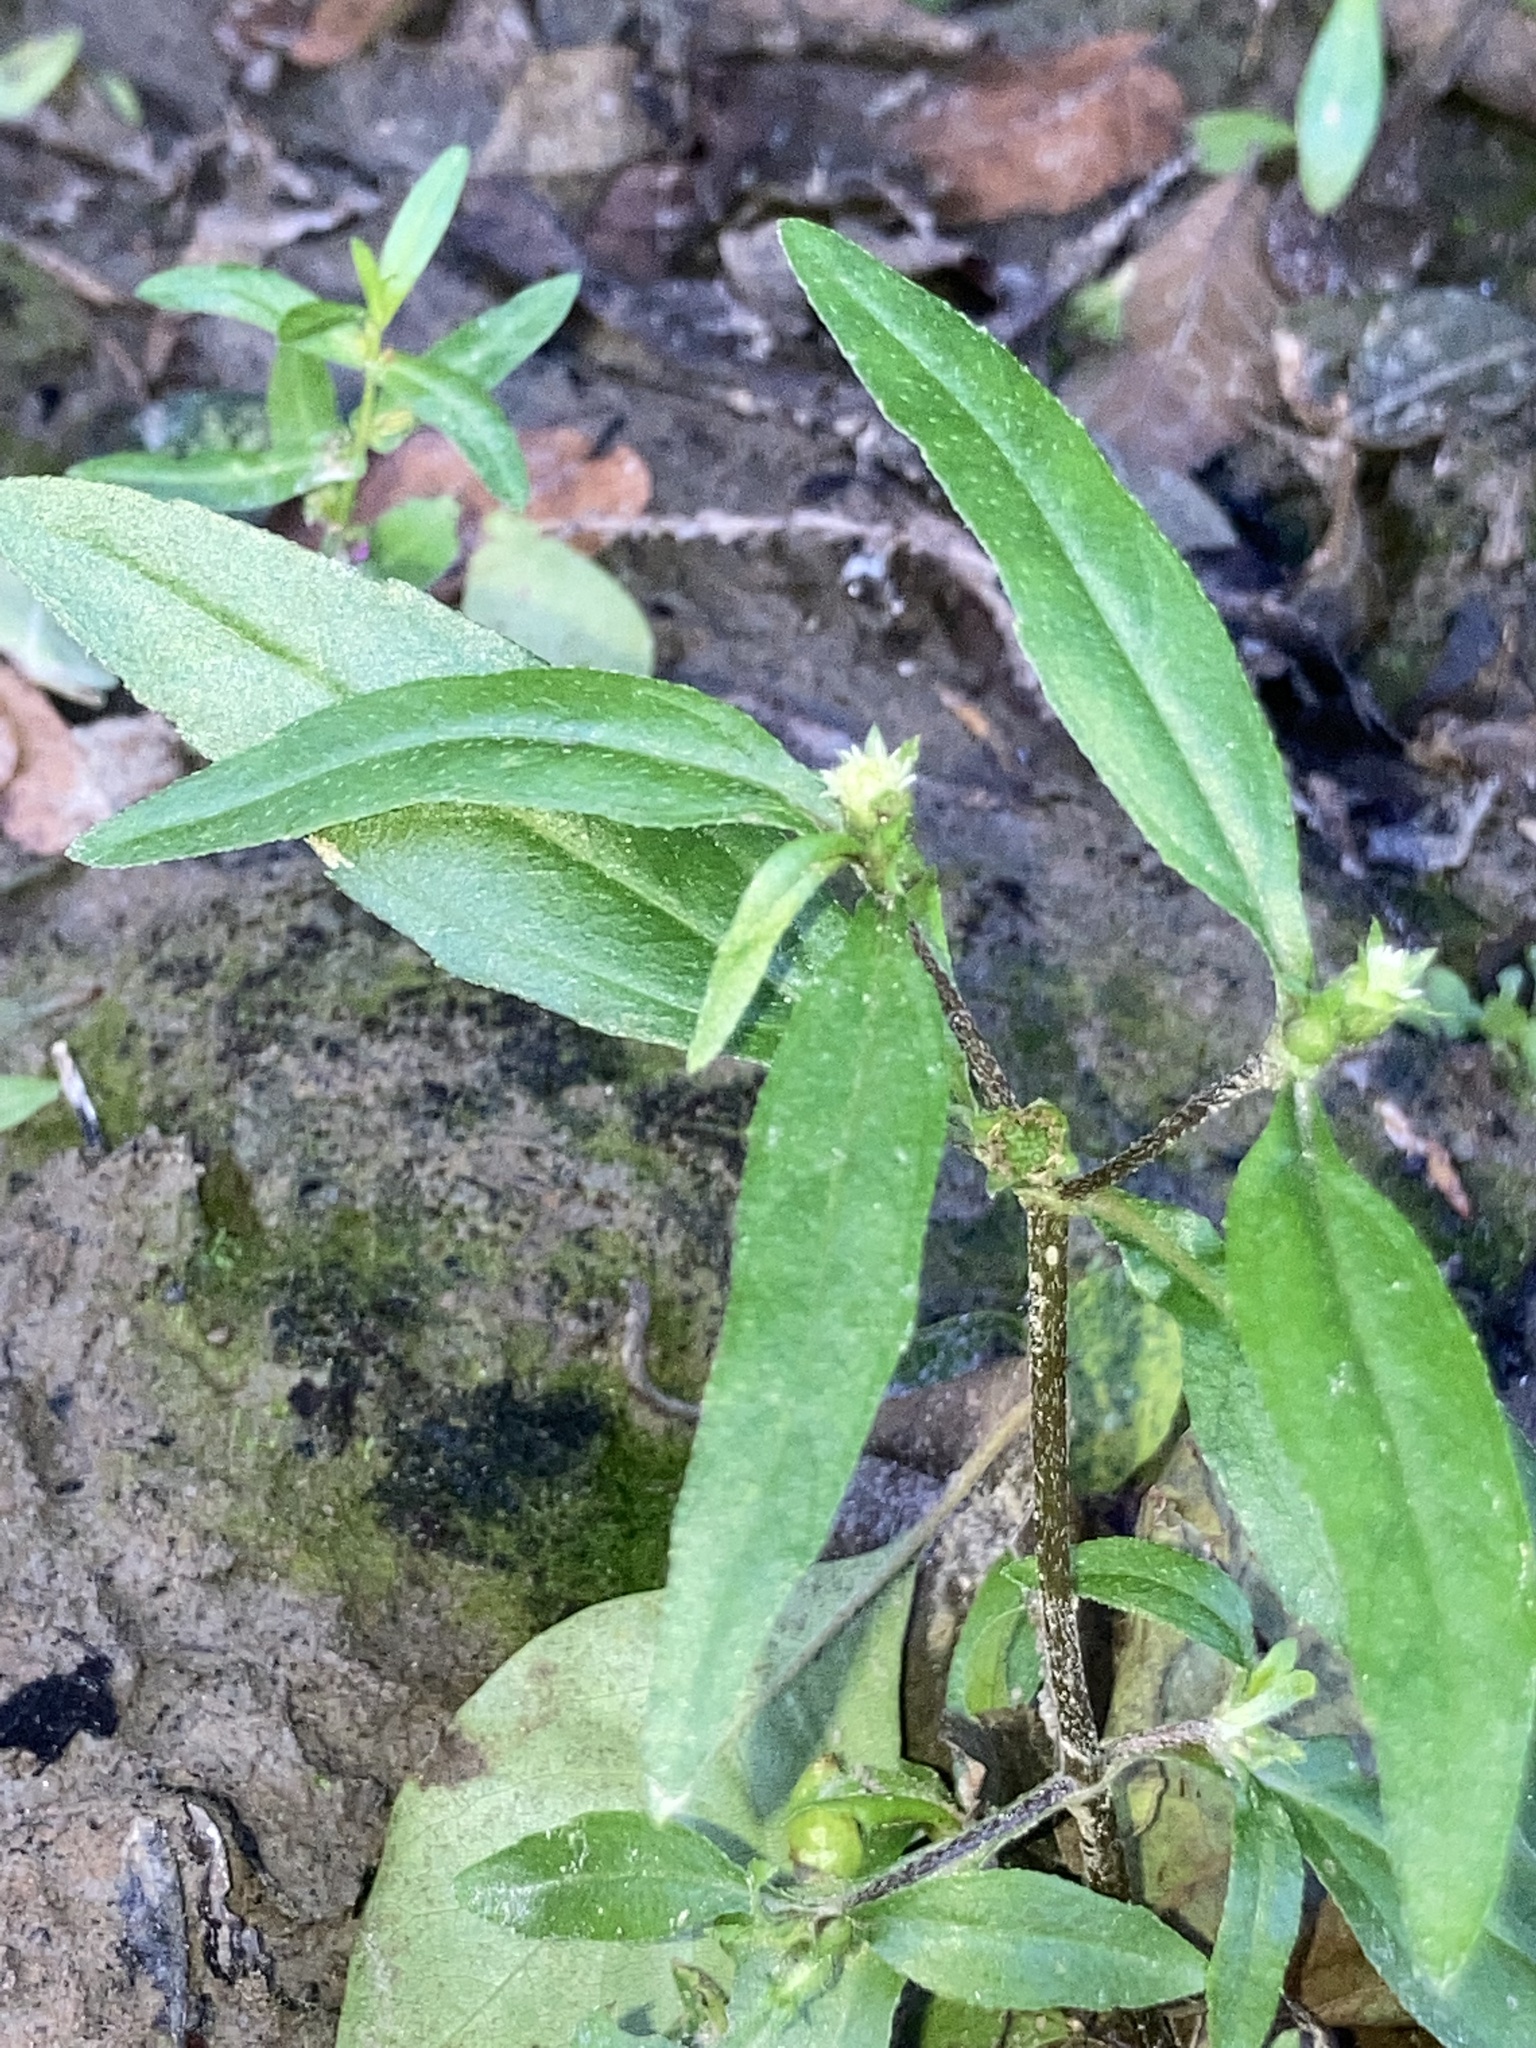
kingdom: Plantae
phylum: Tracheophyta
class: Magnoliopsida
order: Asterales
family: Asteraceae
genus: Eclipta
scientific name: Eclipta prostrata
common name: False daisy
